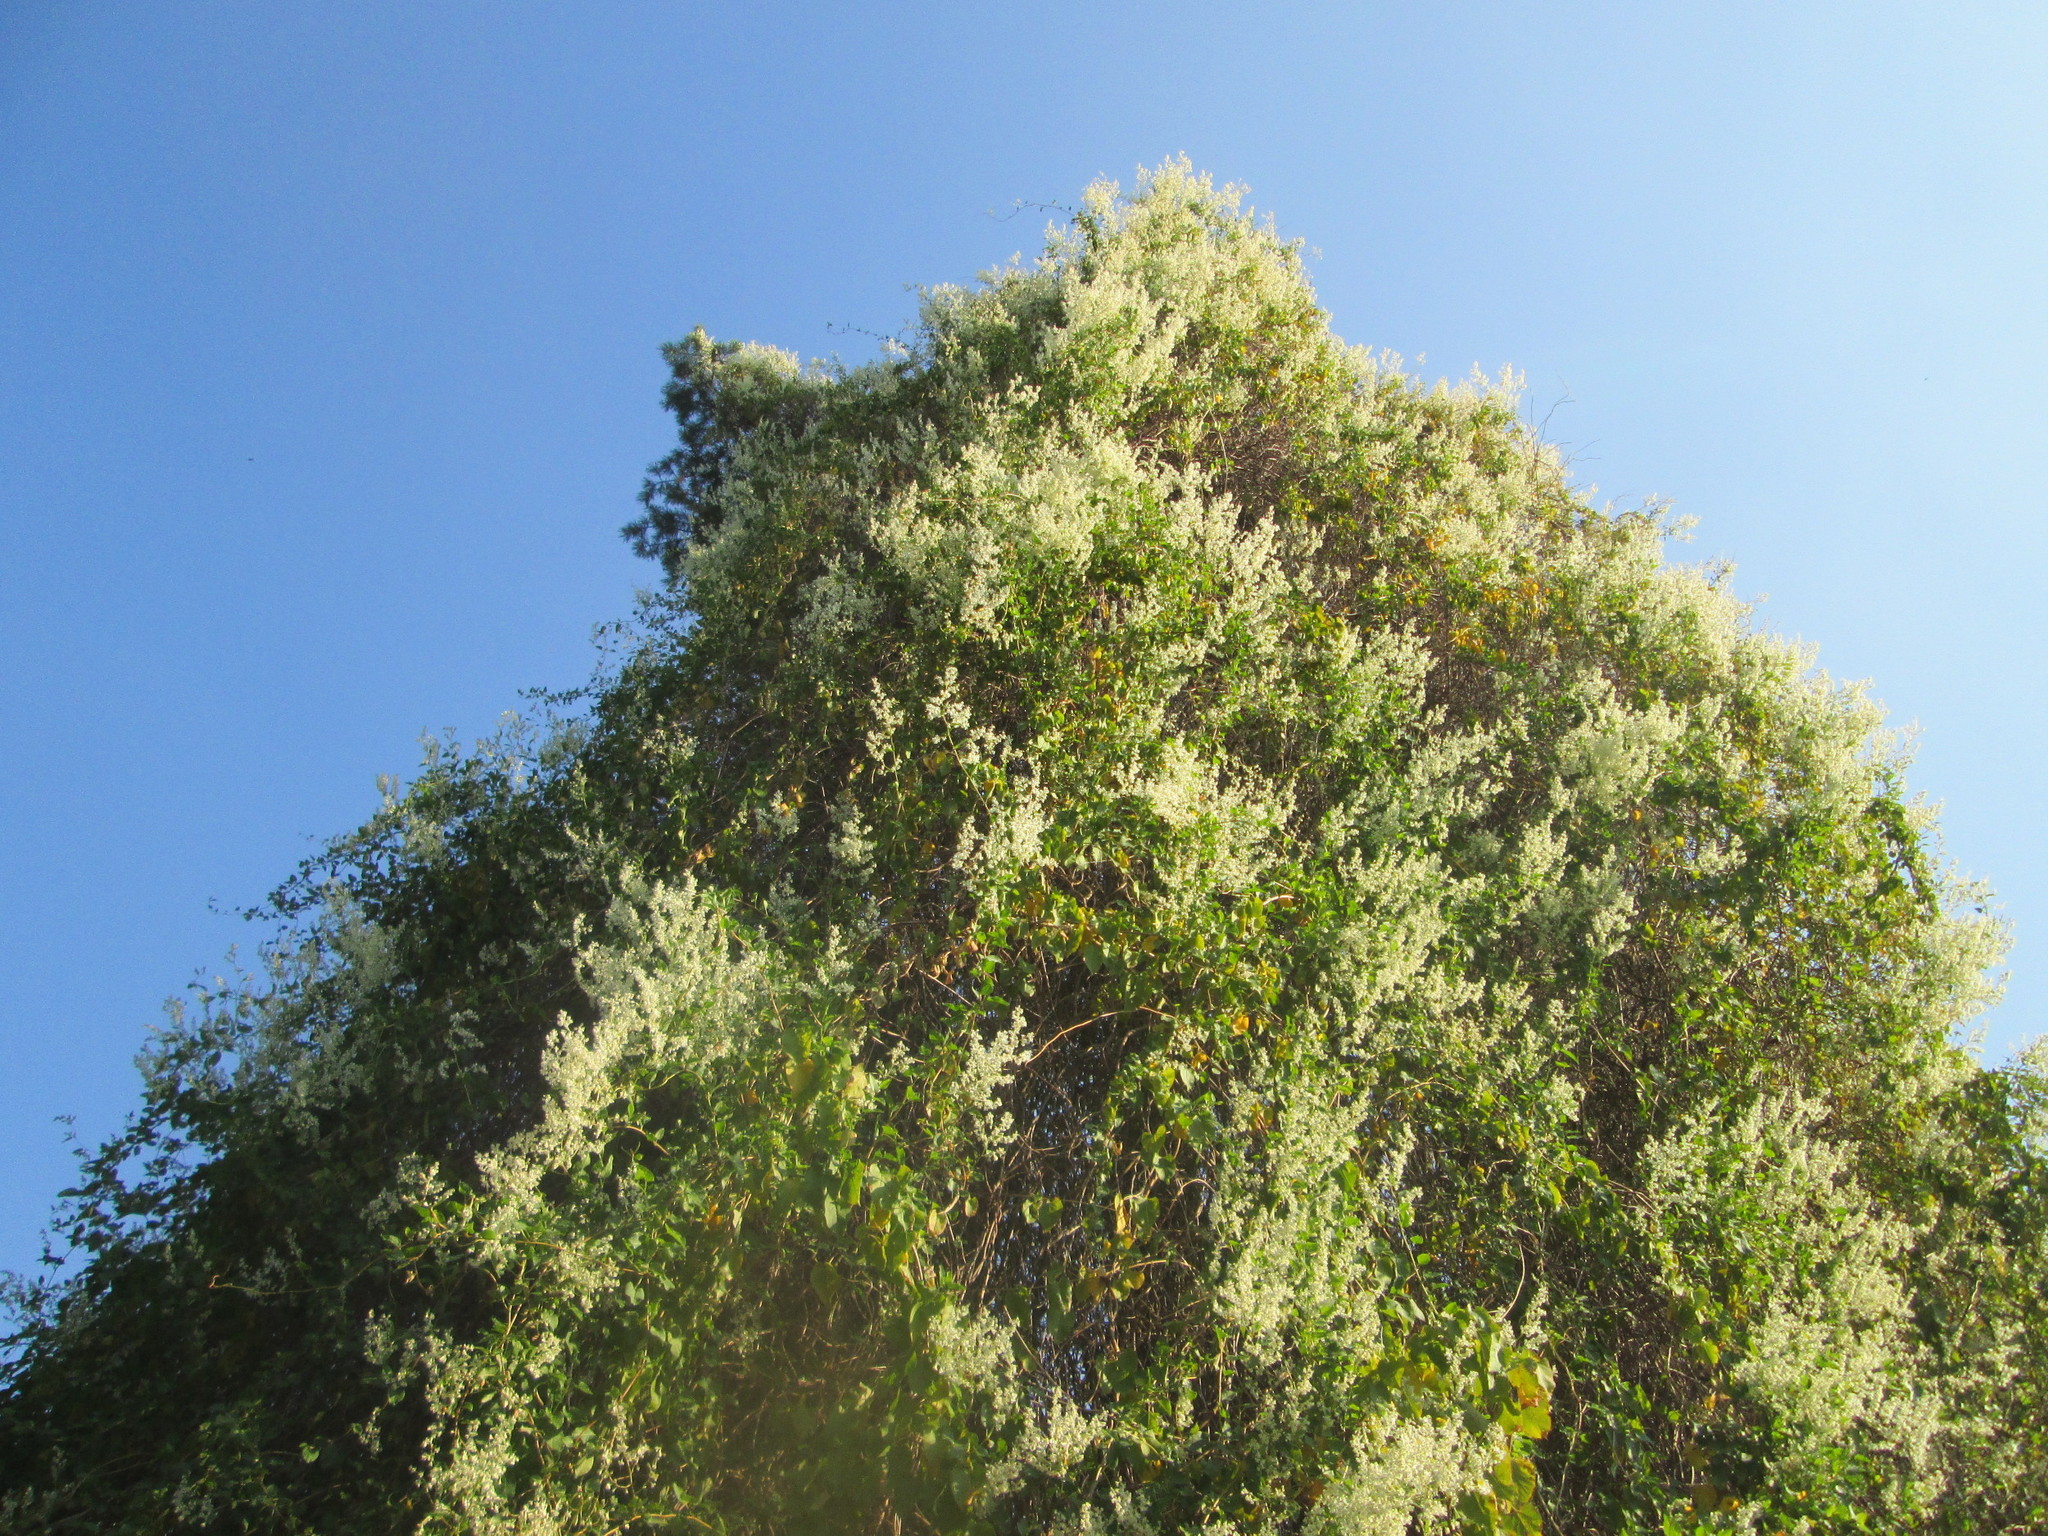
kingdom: Plantae
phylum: Tracheophyta
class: Magnoliopsida
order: Caryophyllales
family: Polygonaceae
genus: Fallopia
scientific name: Fallopia baldschuanica
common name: Russian-vine
